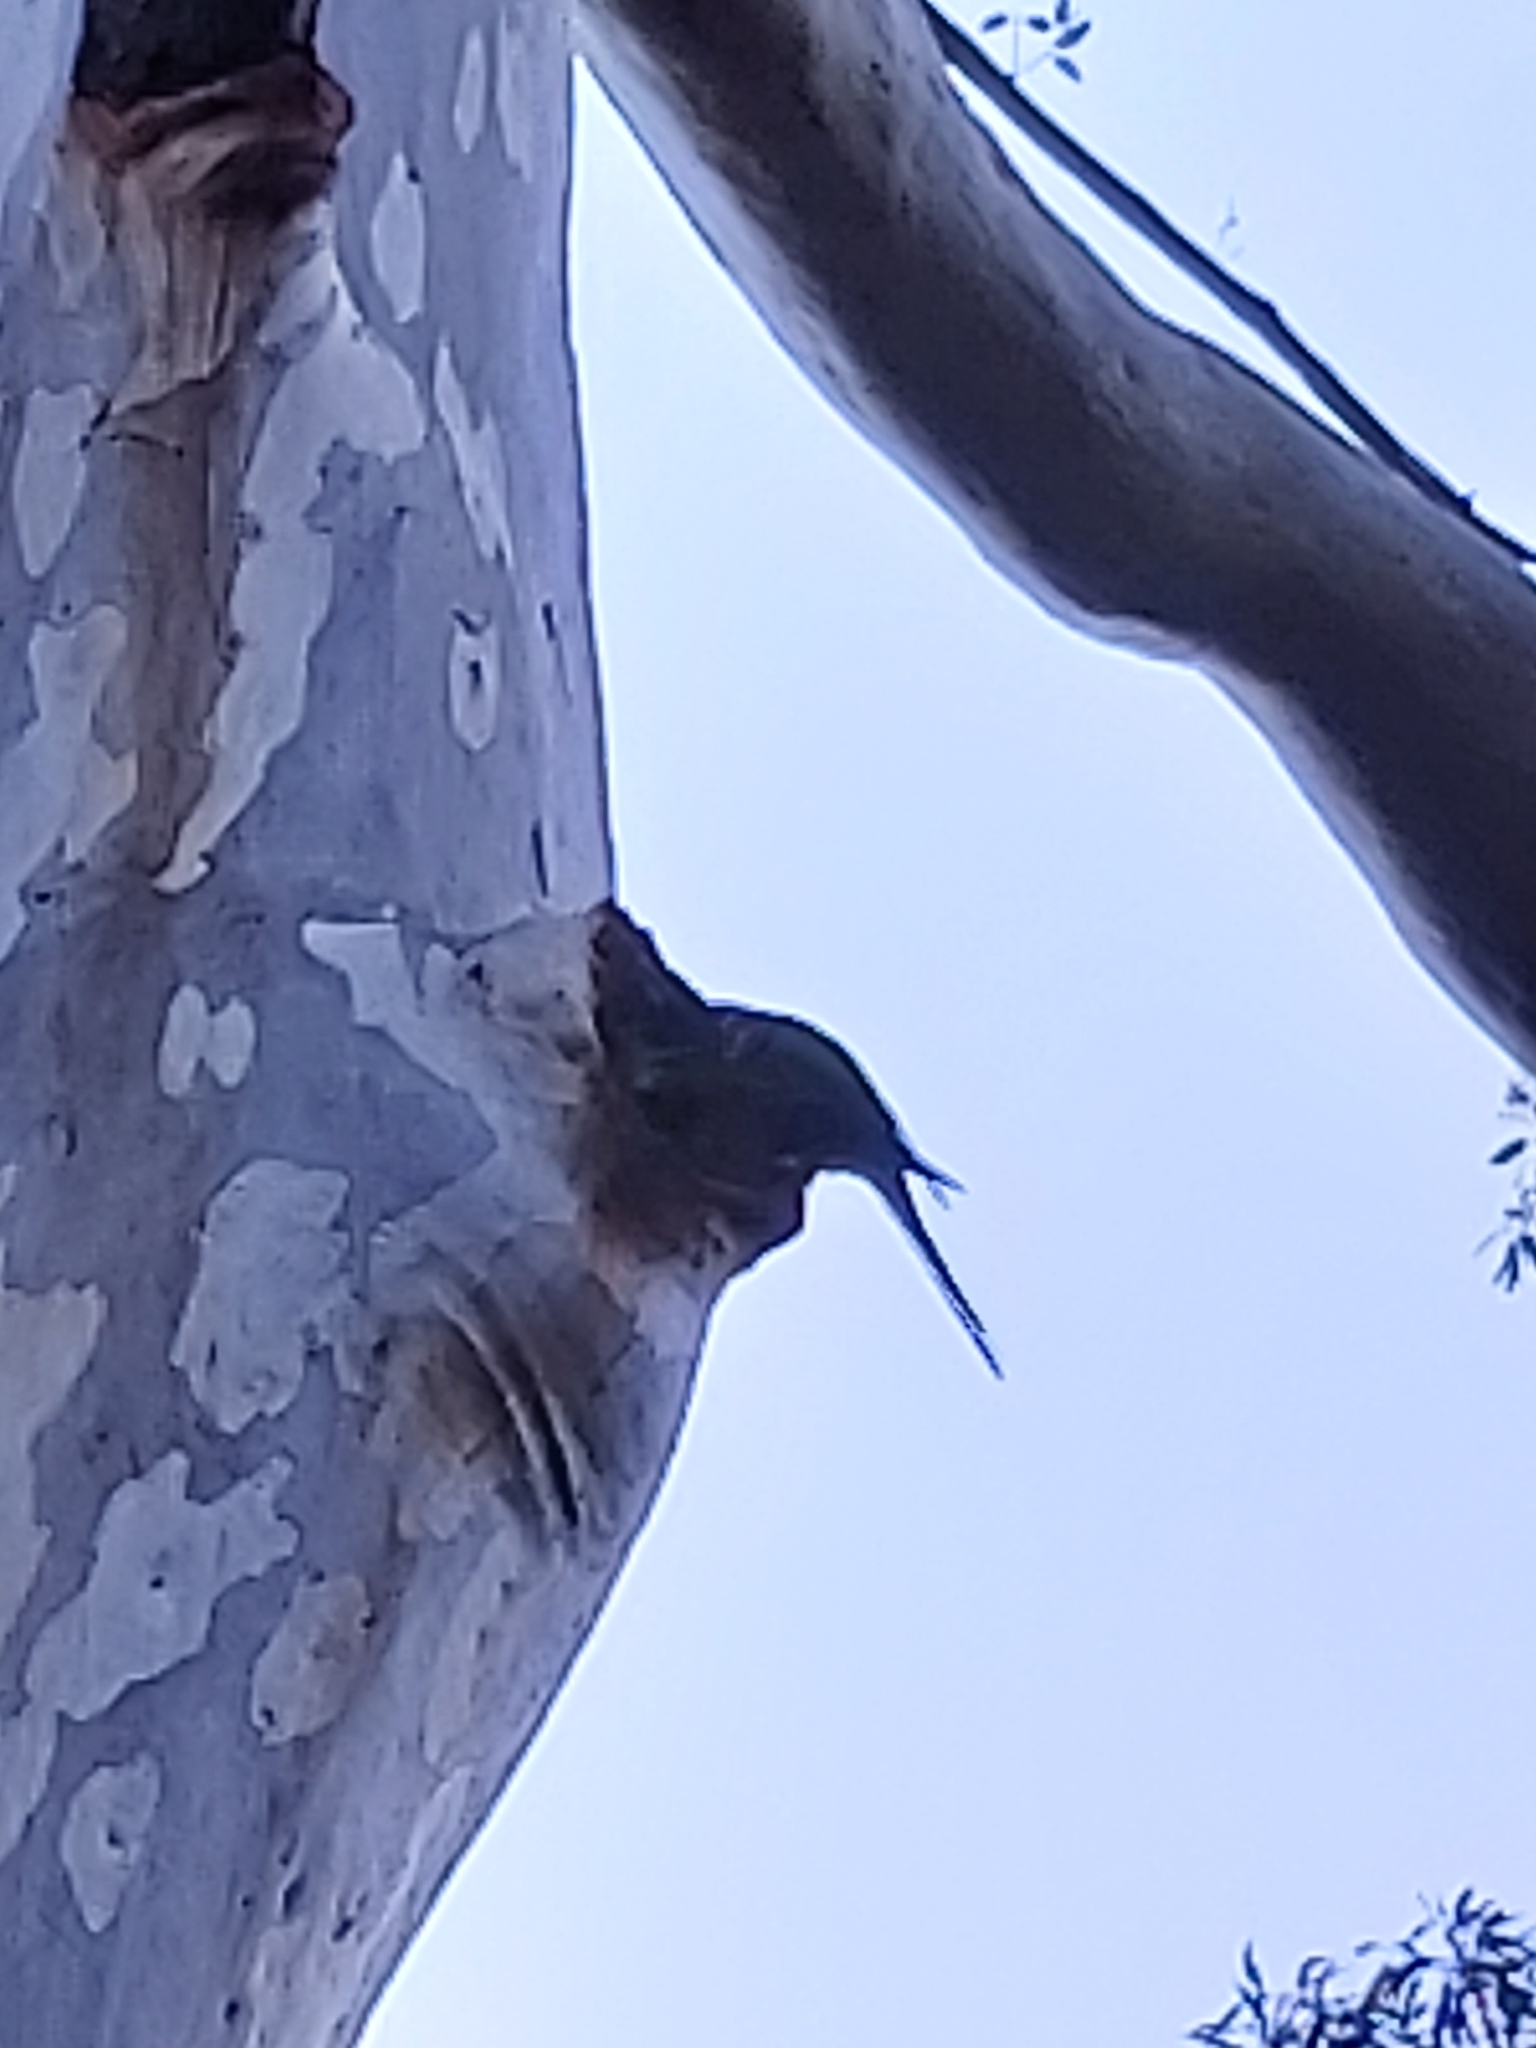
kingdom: Animalia
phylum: Chordata
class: Aves
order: Psittaciformes
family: Psittacidae
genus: Trichoglossus
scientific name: Trichoglossus haematodus
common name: Coconut lorikeet
